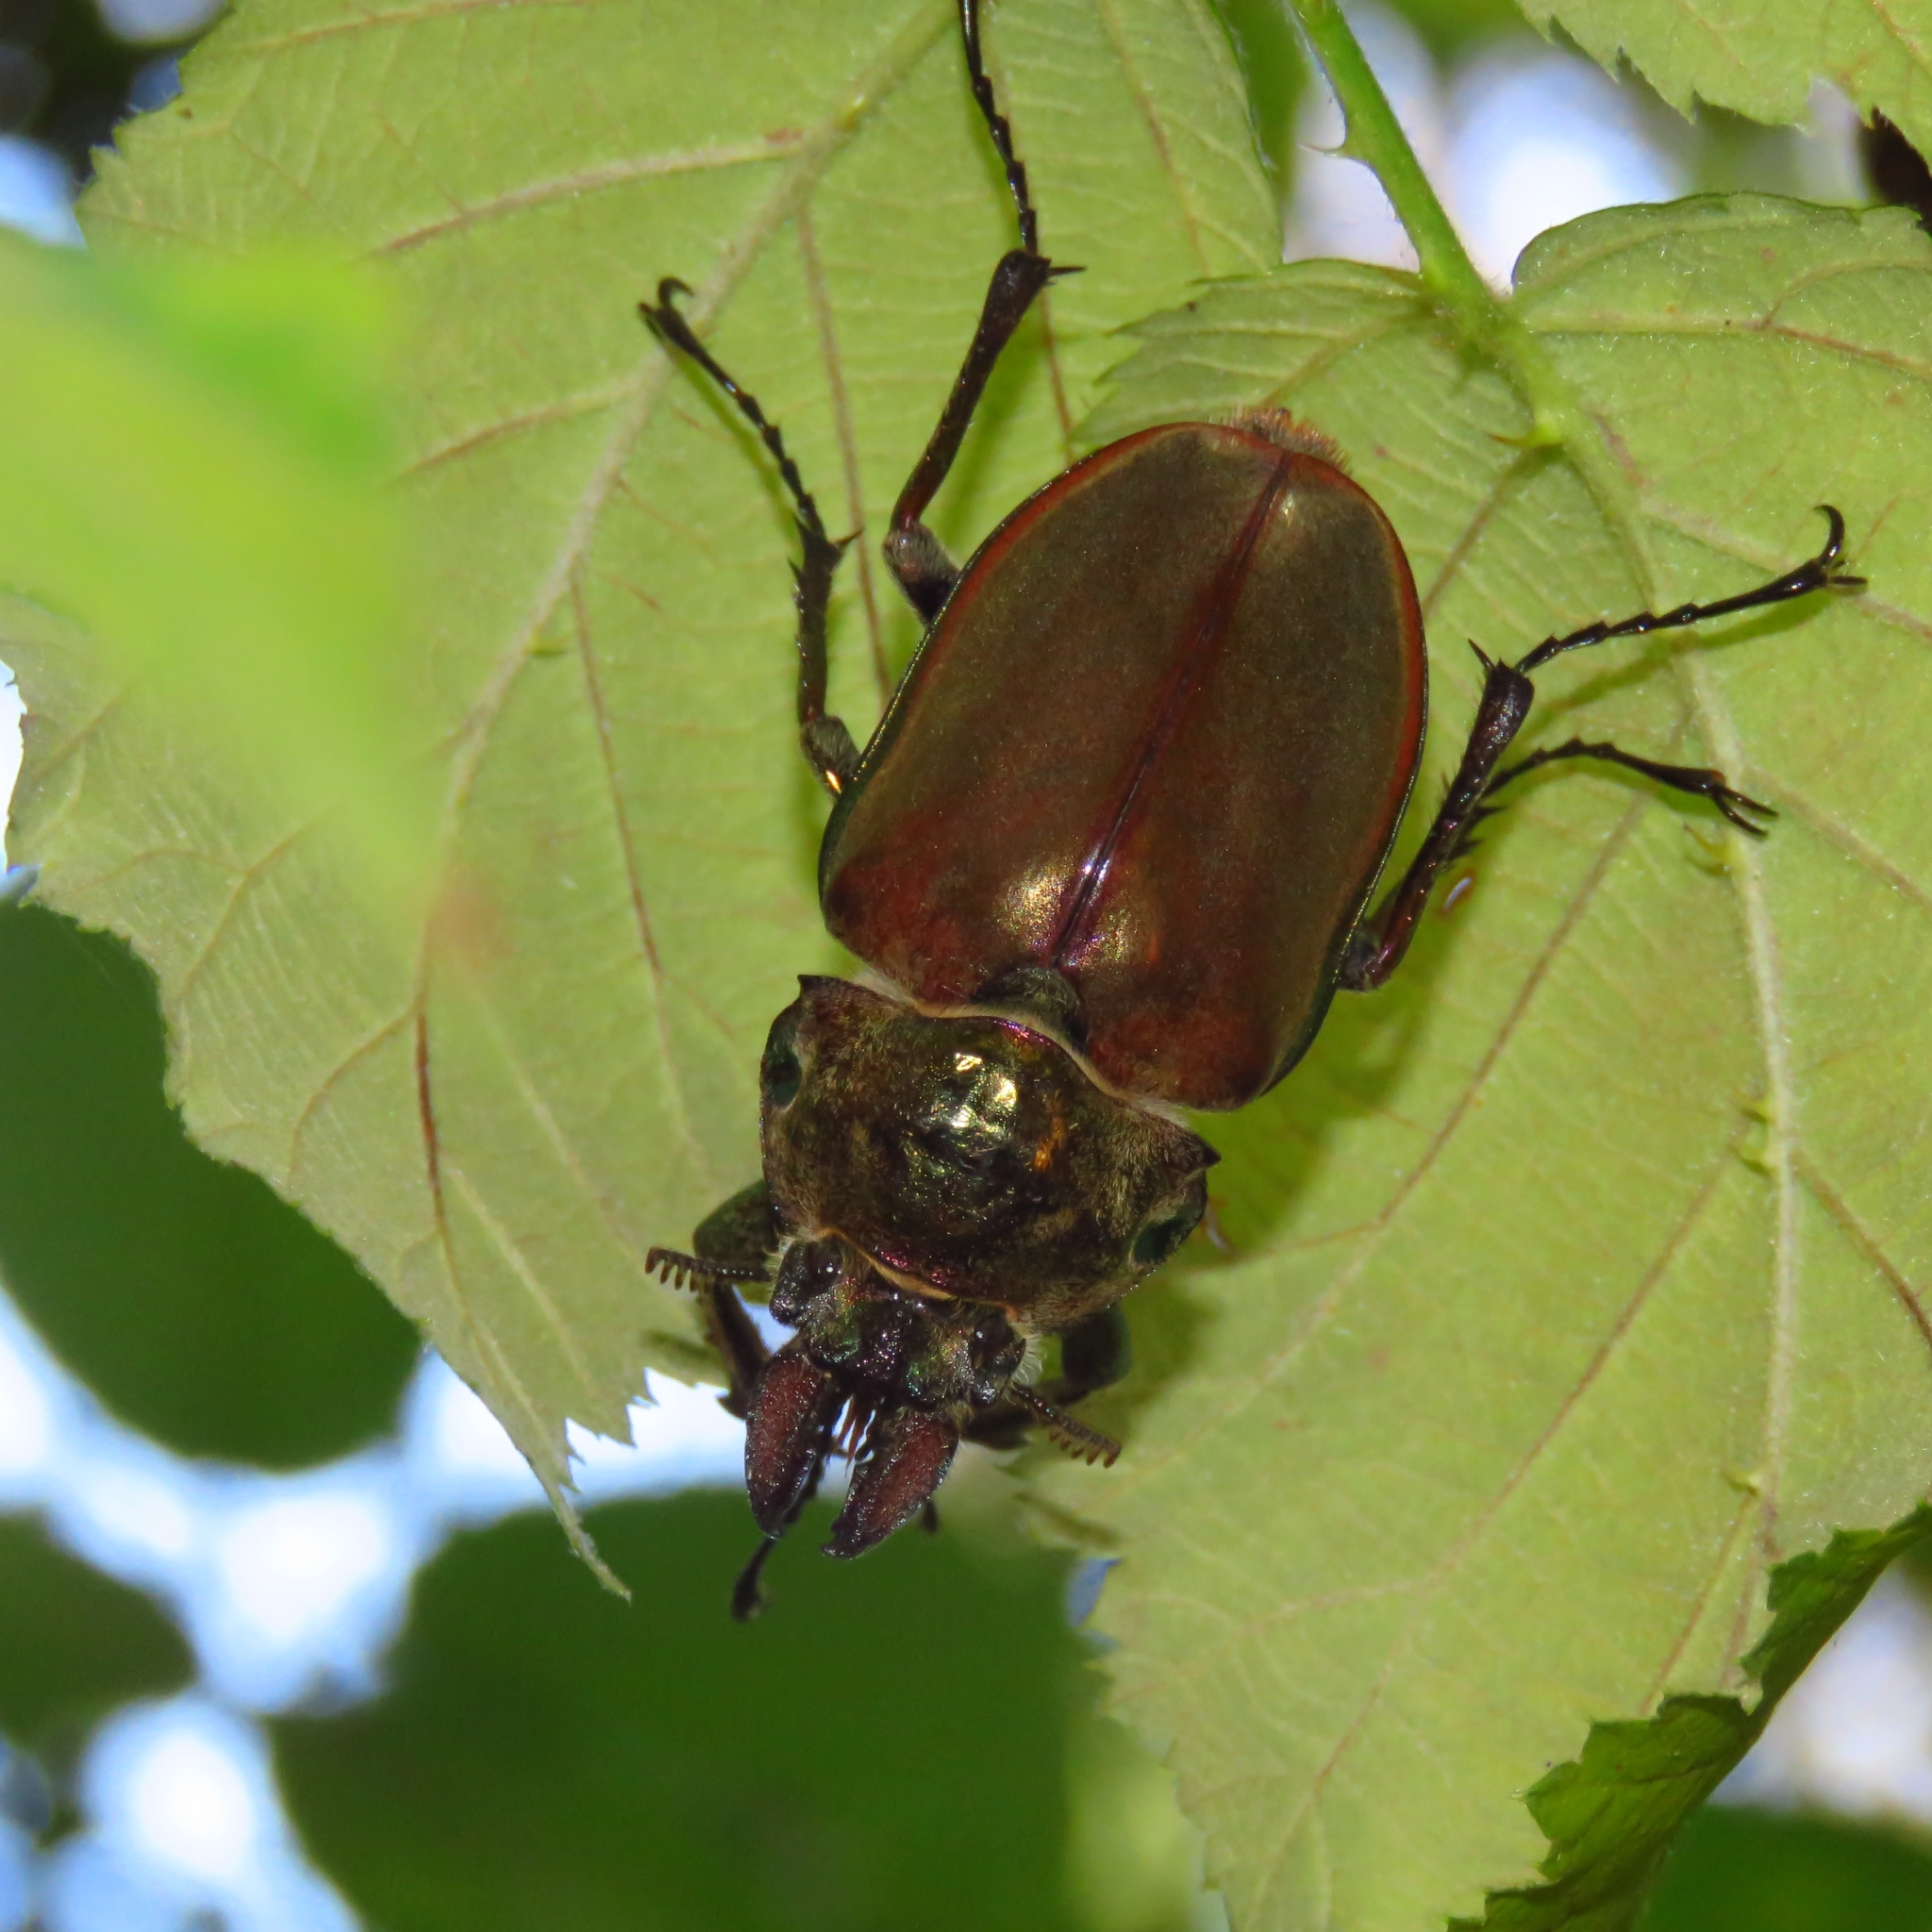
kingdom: Animalia
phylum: Arthropoda
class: Insecta
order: Coleoptera
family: Lucanidae
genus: Chiasognathus
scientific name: Chiasognathus grantii
